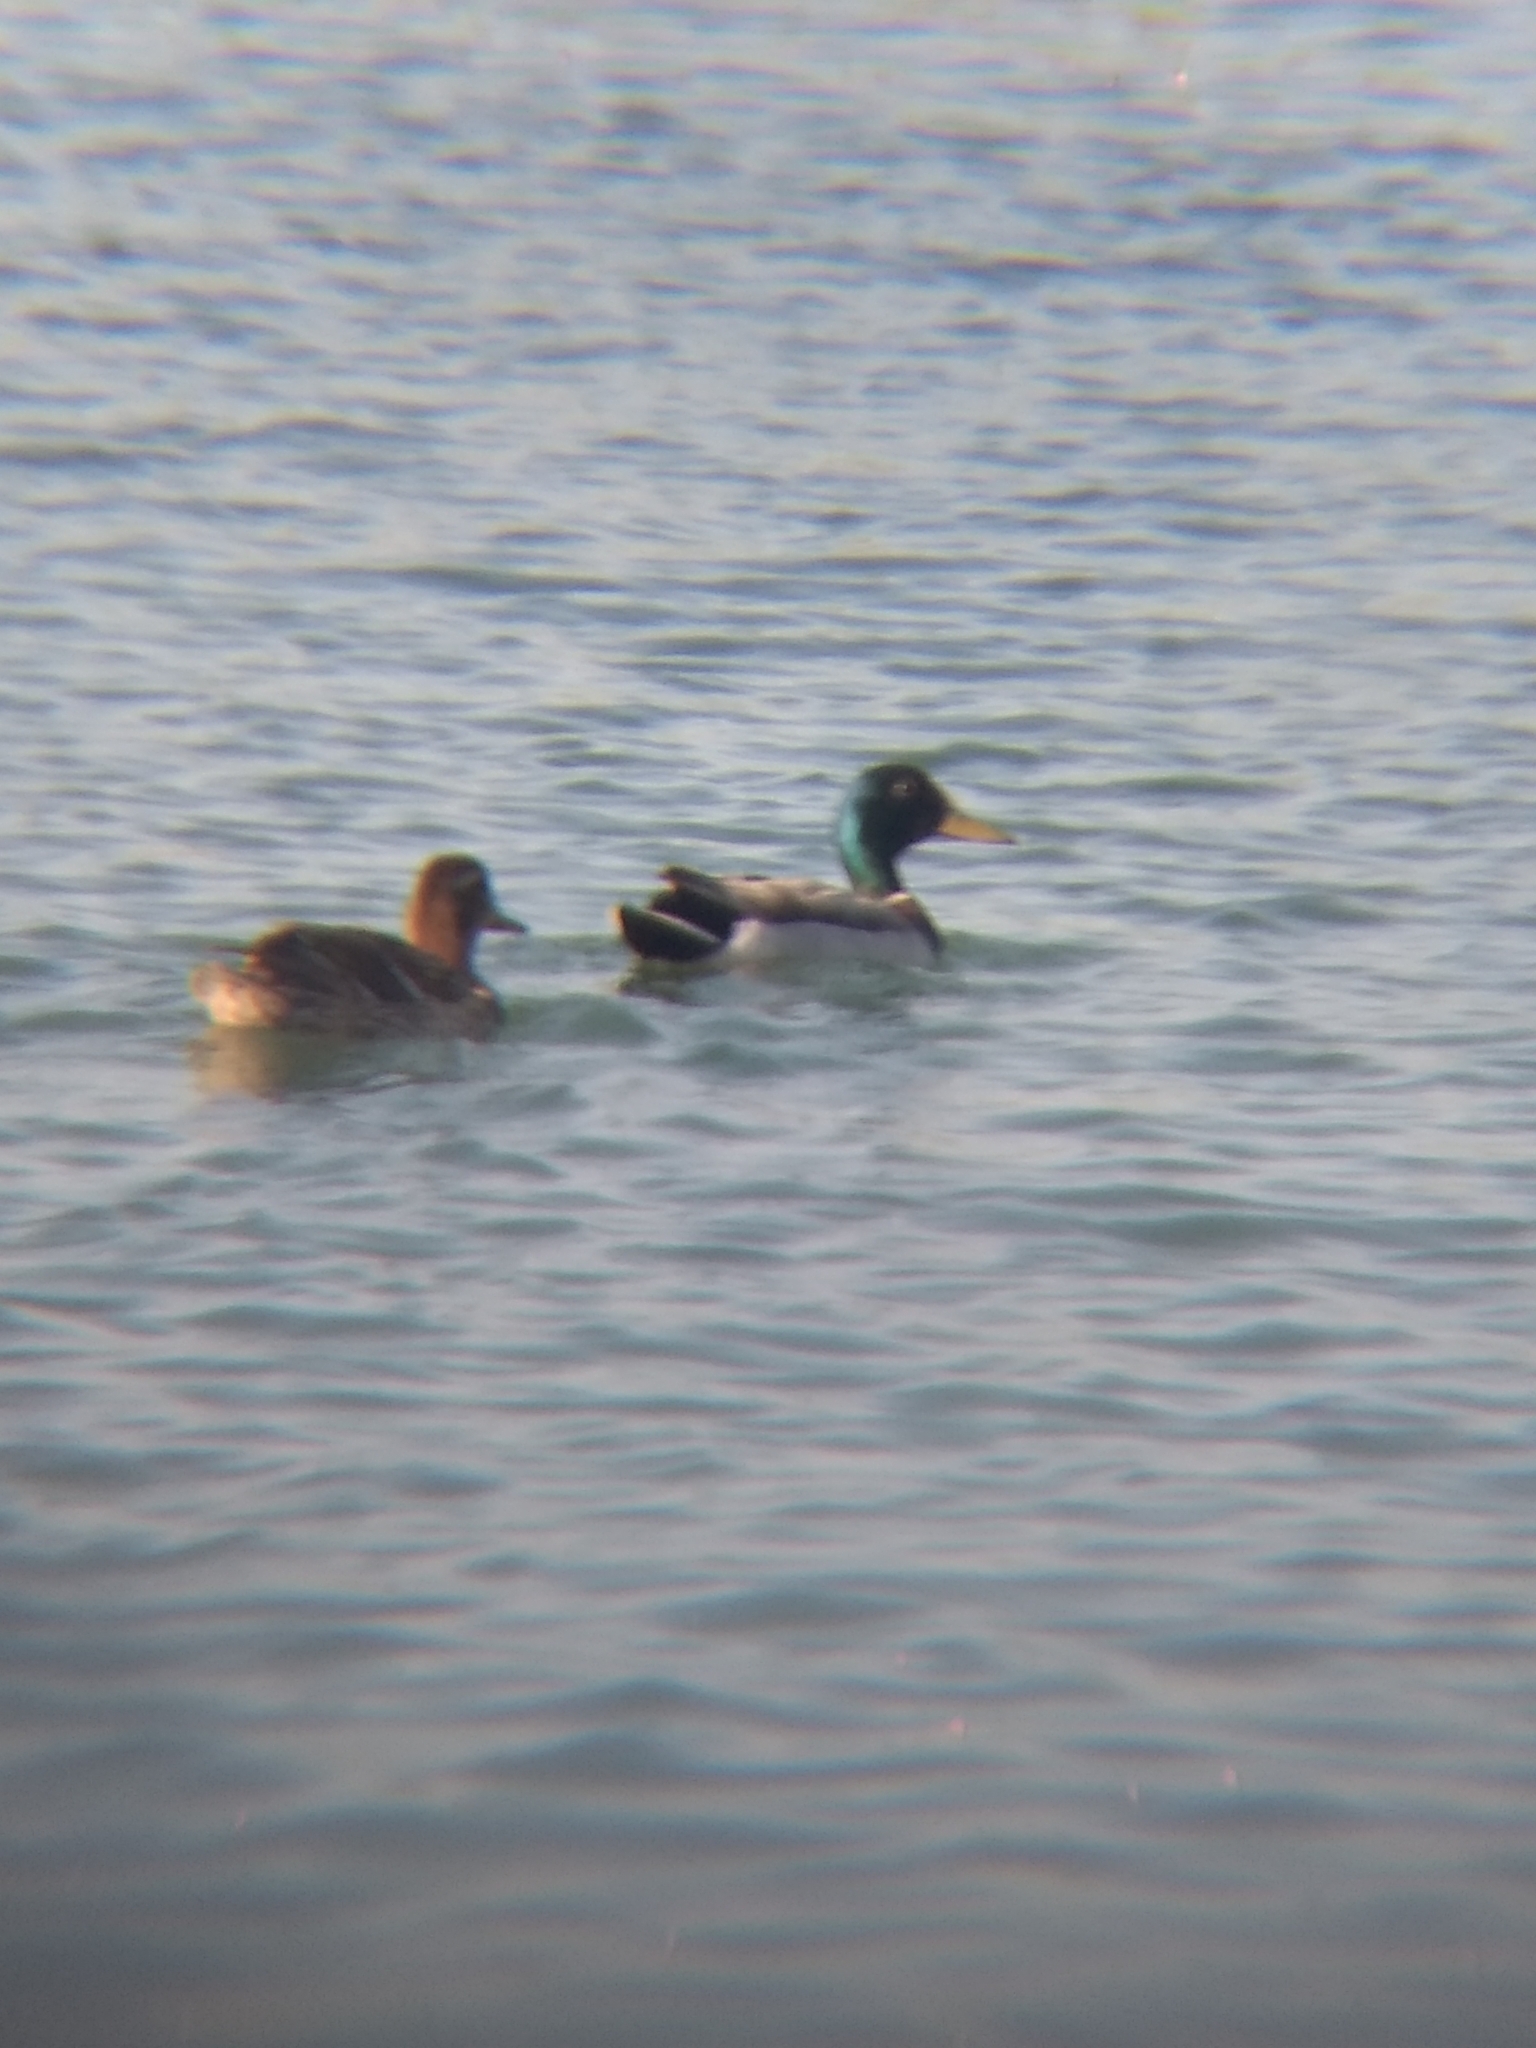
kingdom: Animalia
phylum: Chordata
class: Aves
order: Anseriformes
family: Anatidae
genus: Anas
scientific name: Anas platyrhynchos
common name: Mallard
